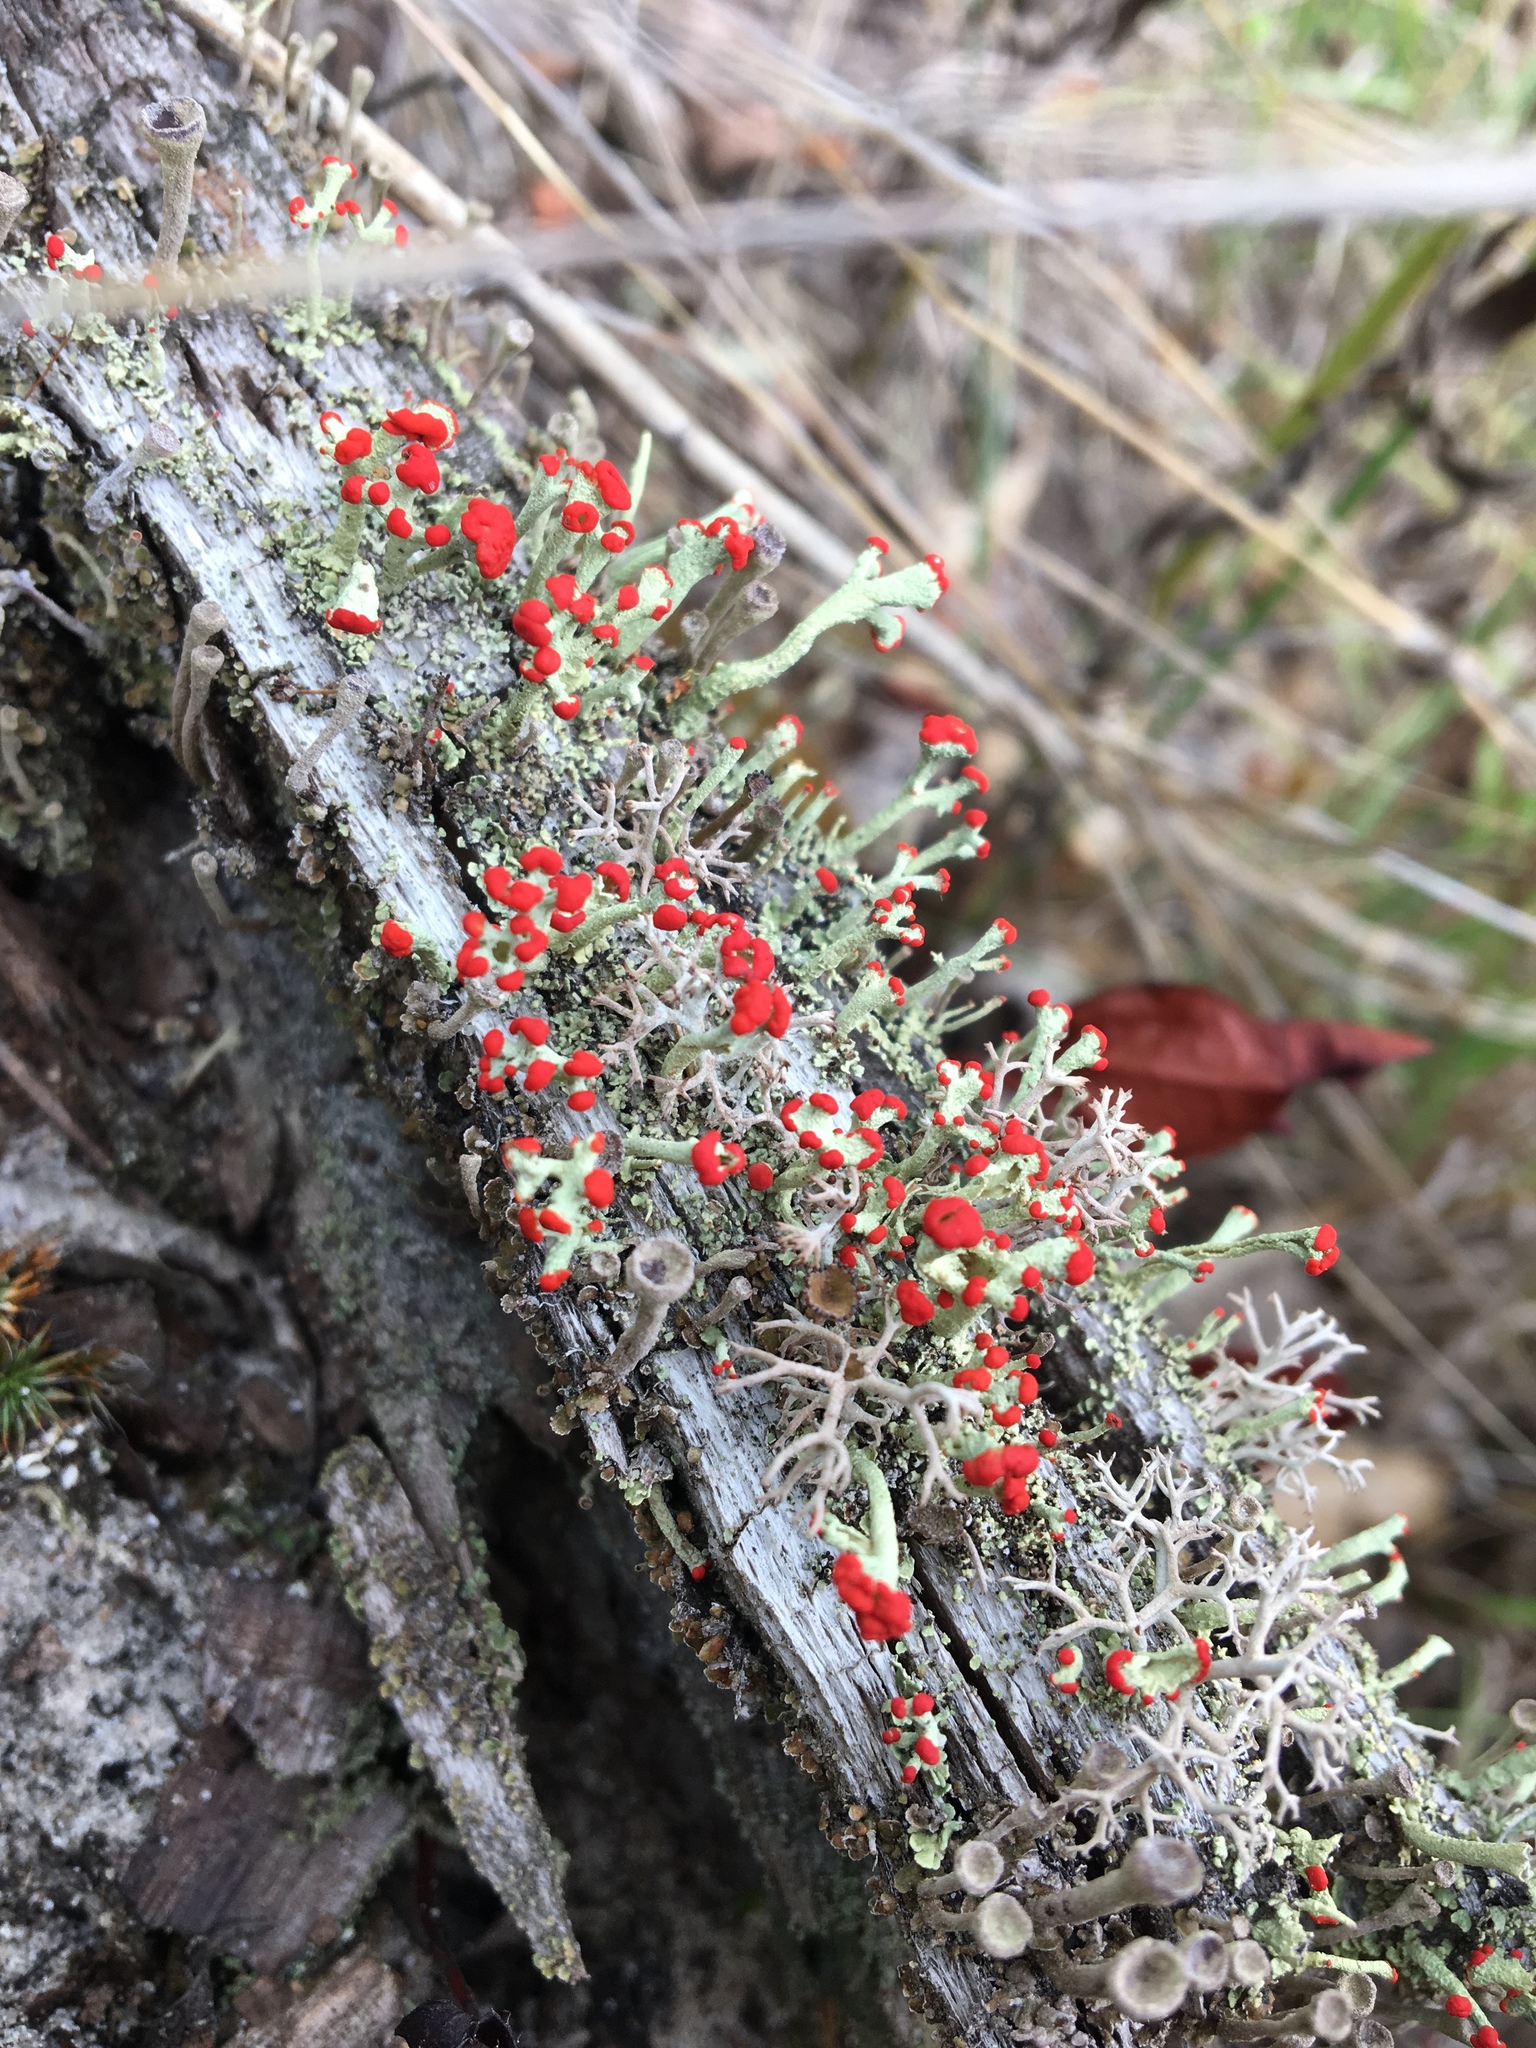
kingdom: Fungi
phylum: Ascomycota
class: Lecanoromycetes
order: Lecanorales
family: Cladoniaceae
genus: Cladonia
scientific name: Cladonia cristatella
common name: British soldier lichen
